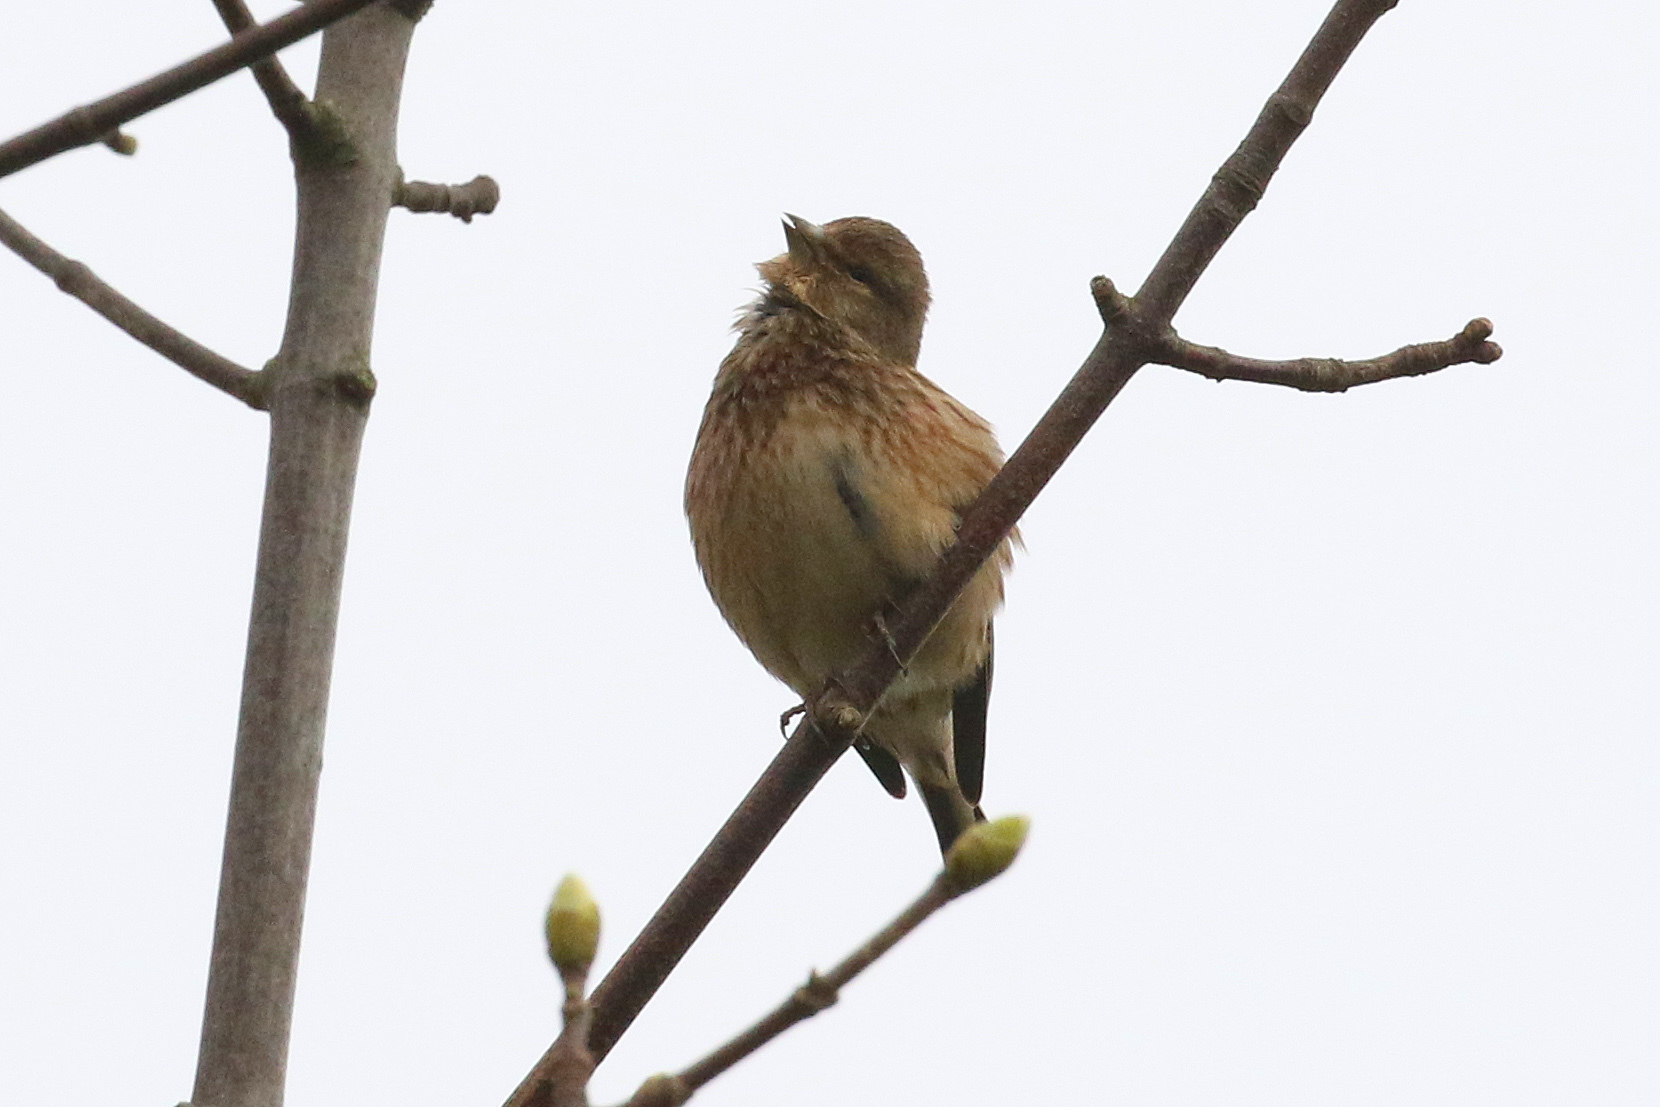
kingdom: Animalia
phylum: Chordata
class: Aves
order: Passeriformes
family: Fringillidae
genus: Linaria
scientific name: Linaria cannabina
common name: Common linnet
